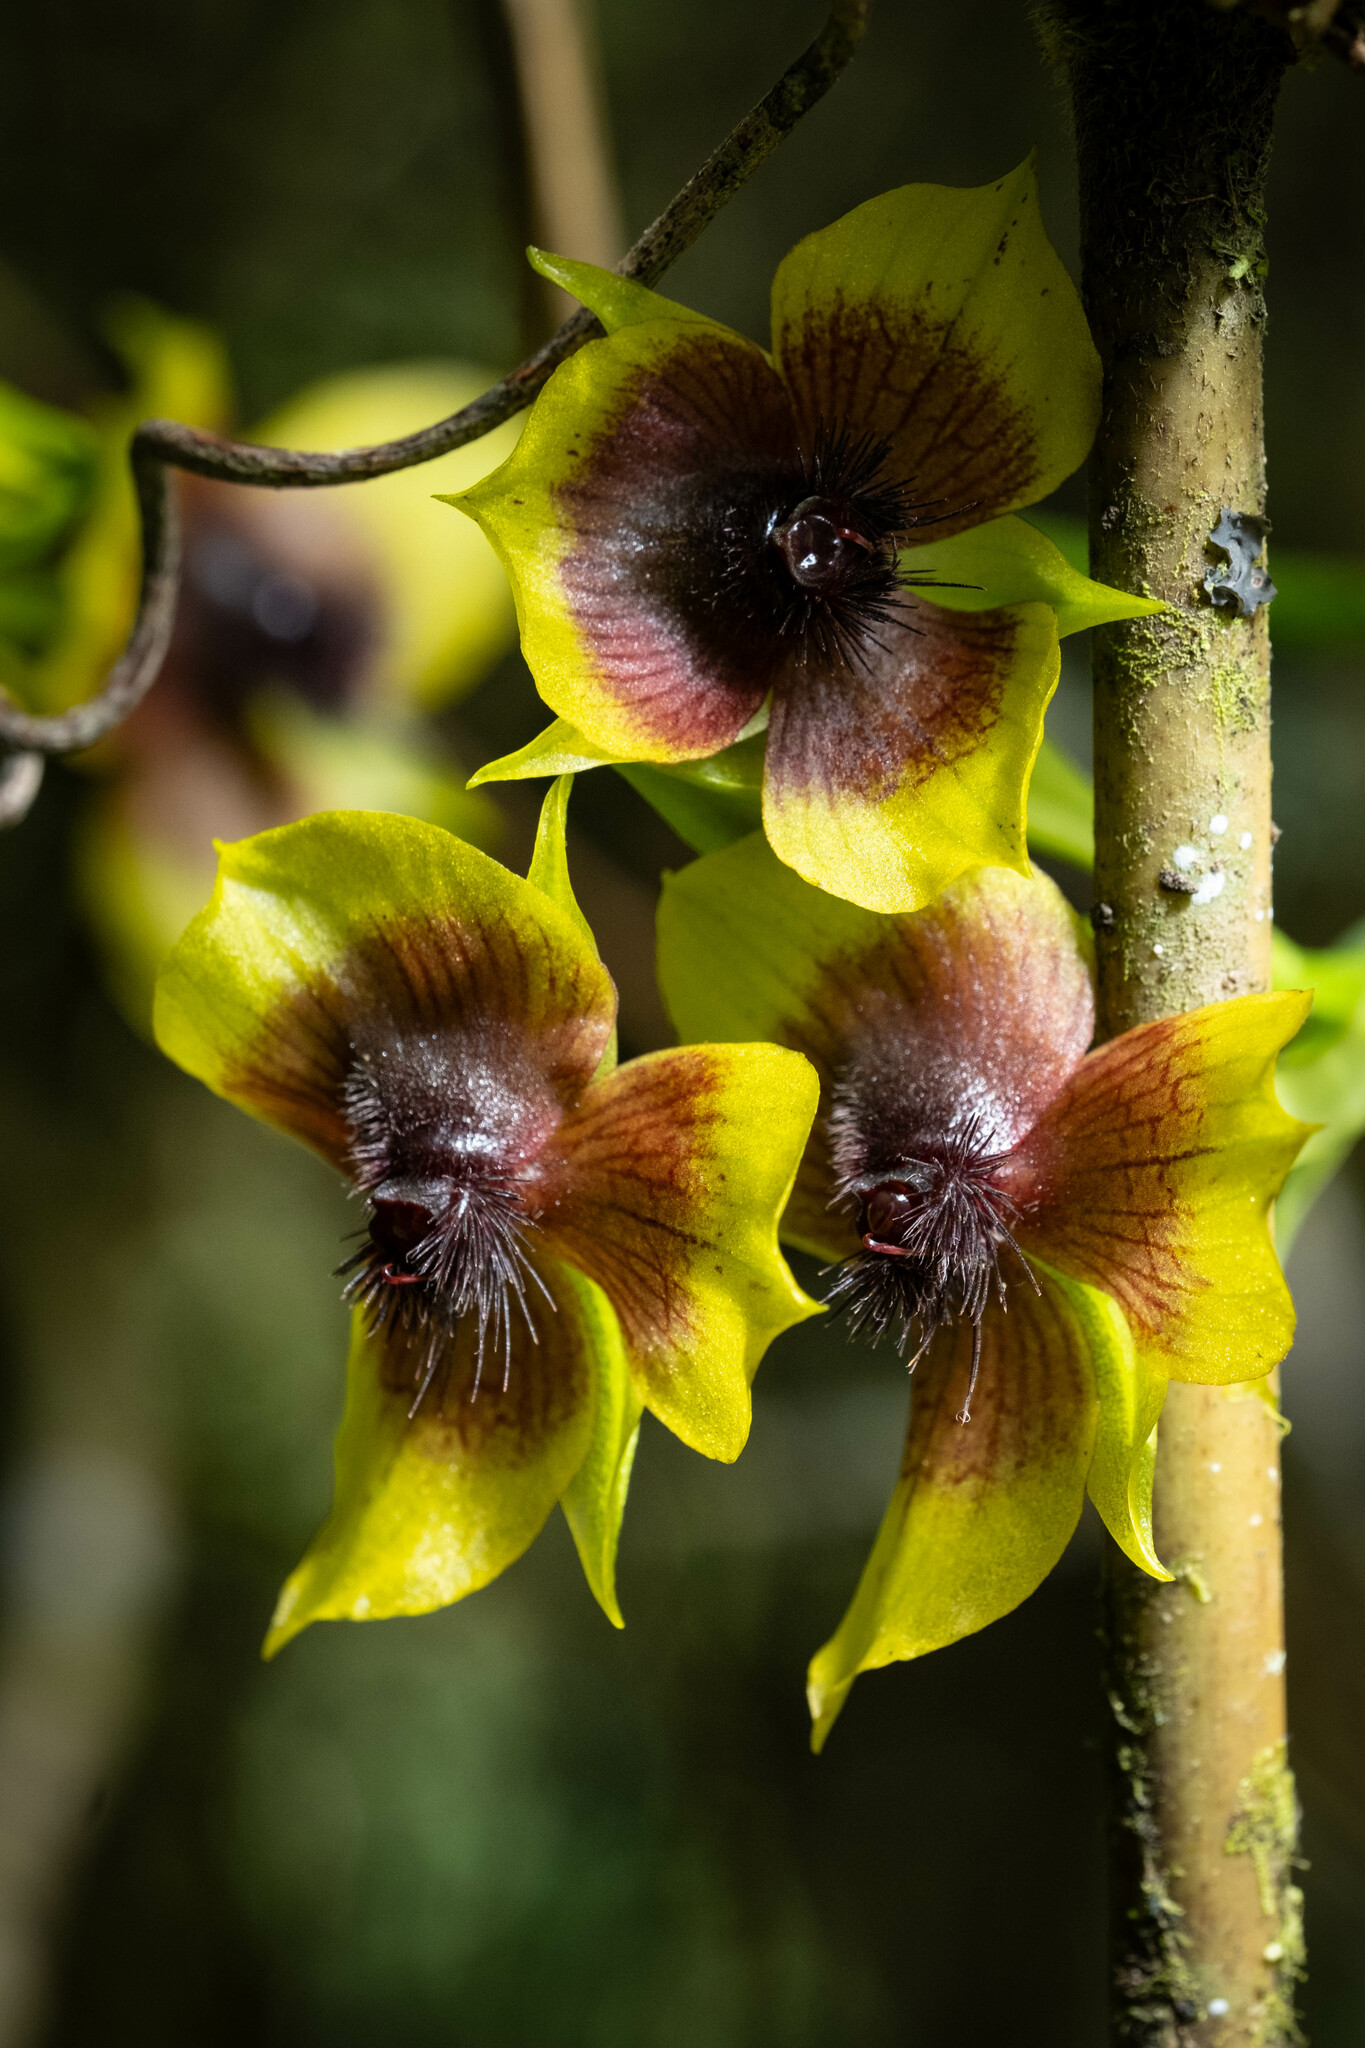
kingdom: Plantae
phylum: Tracheophyta
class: Liliopsida
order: Asparagales
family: Orchidaceae
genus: Telipogon
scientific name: Telipogon berthae
